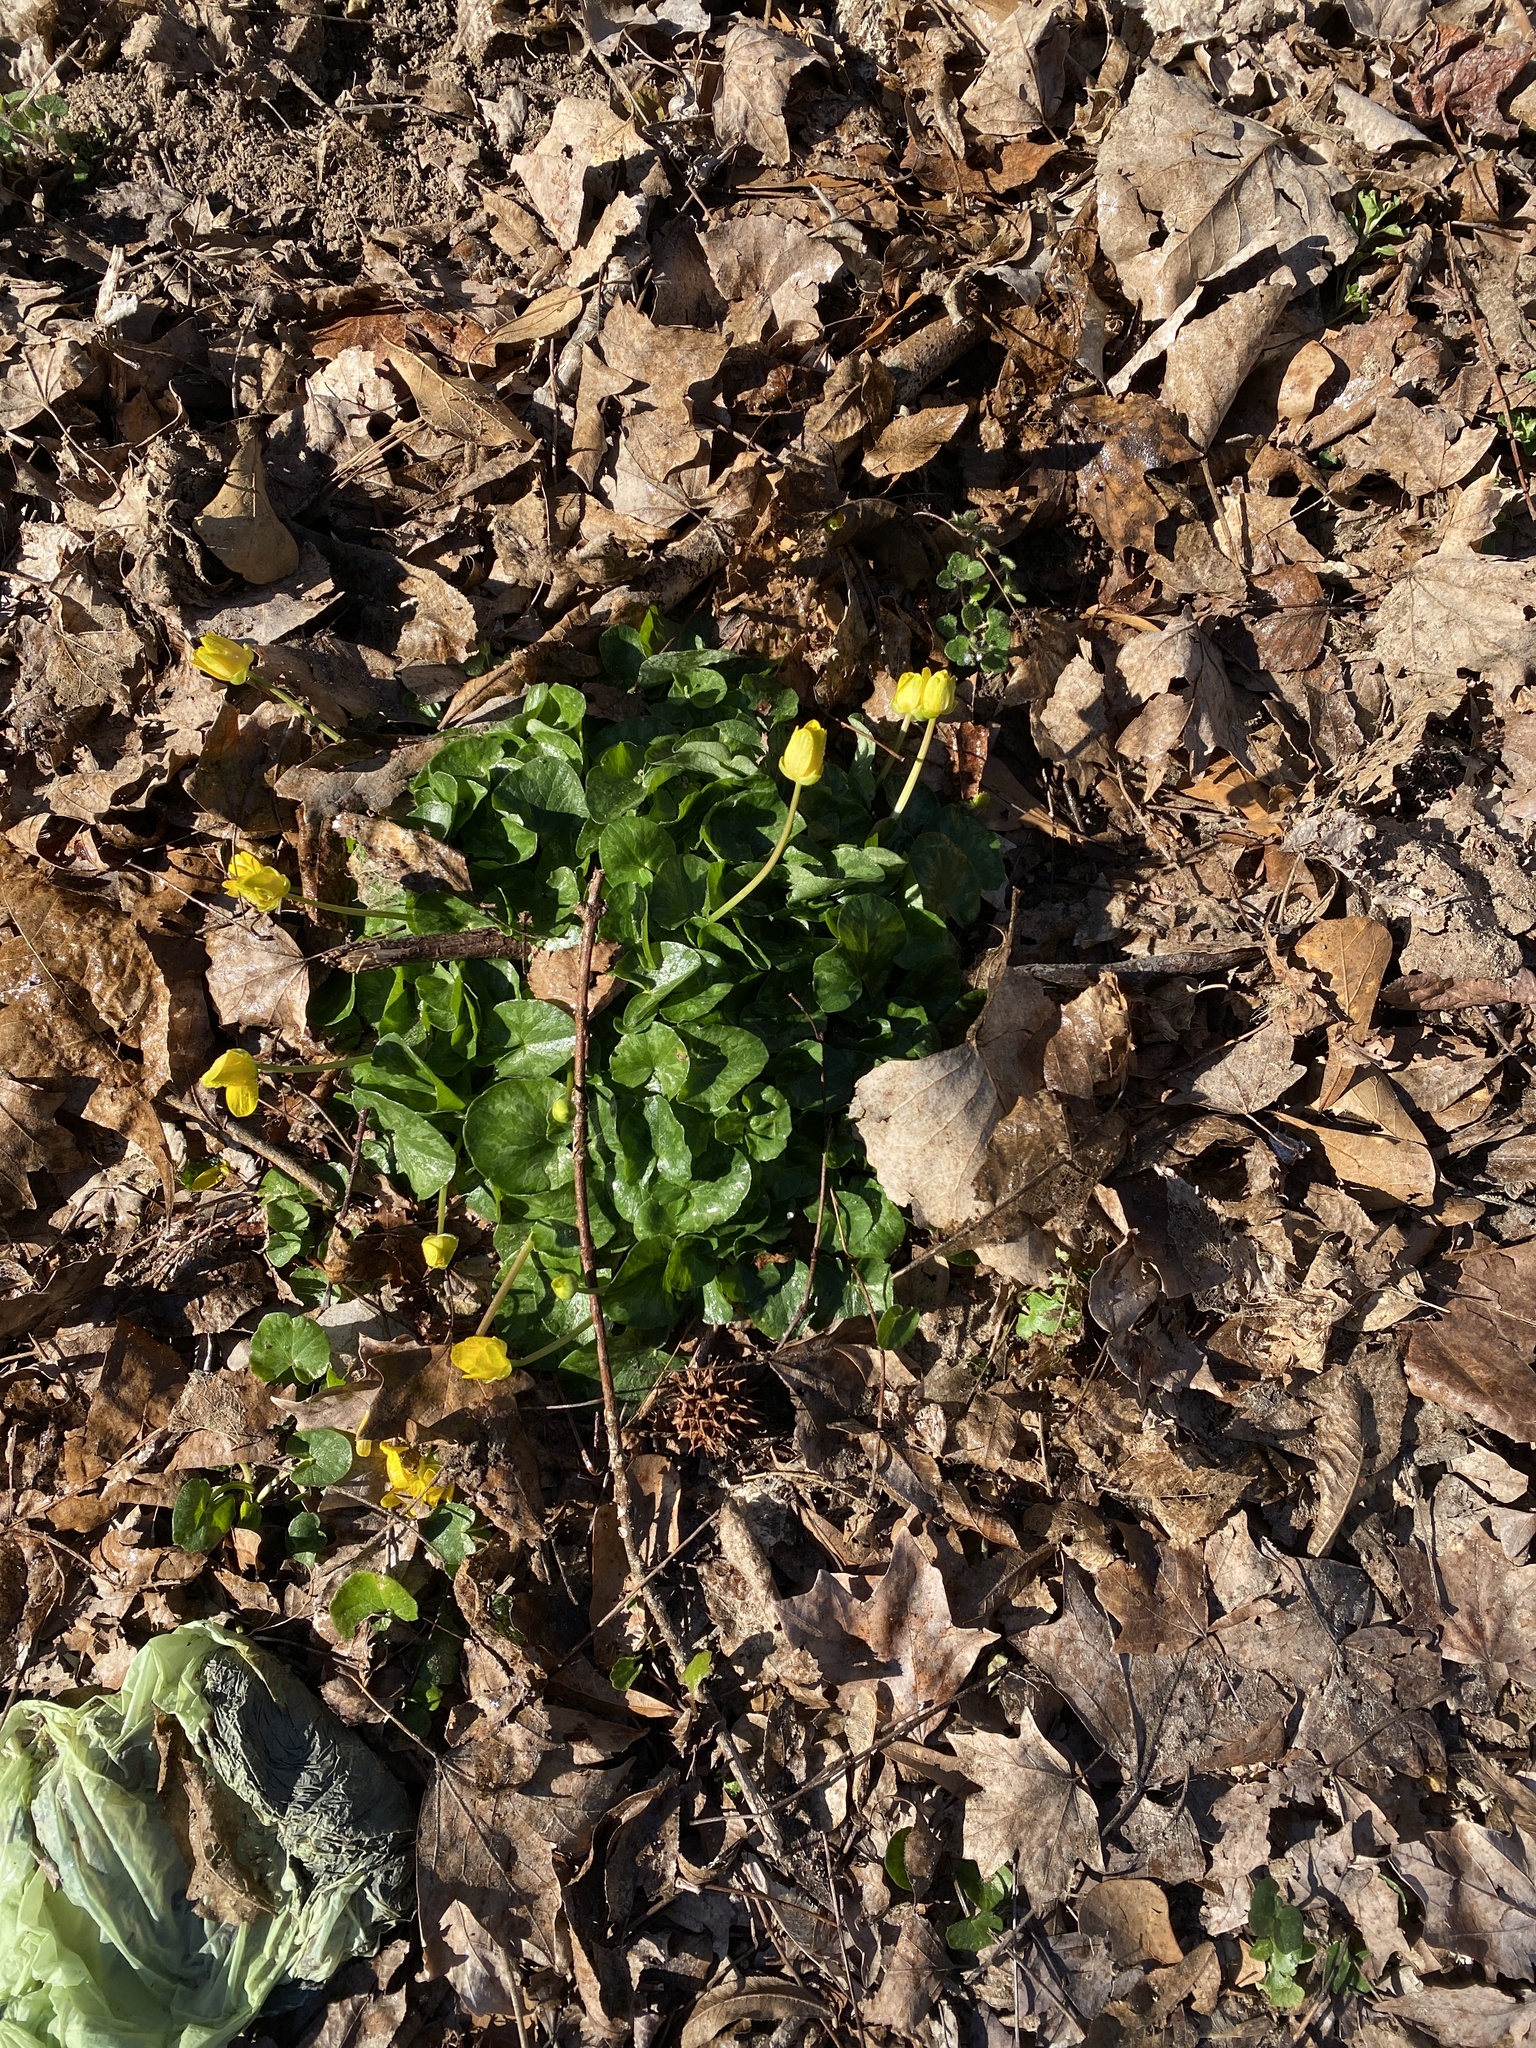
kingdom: Plantae
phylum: Tracheophyta
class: Magnoliopsida
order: Ranunculales
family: Ranunculaceae
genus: Ficaria
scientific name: Ficaria verna
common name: Lesser celandine
